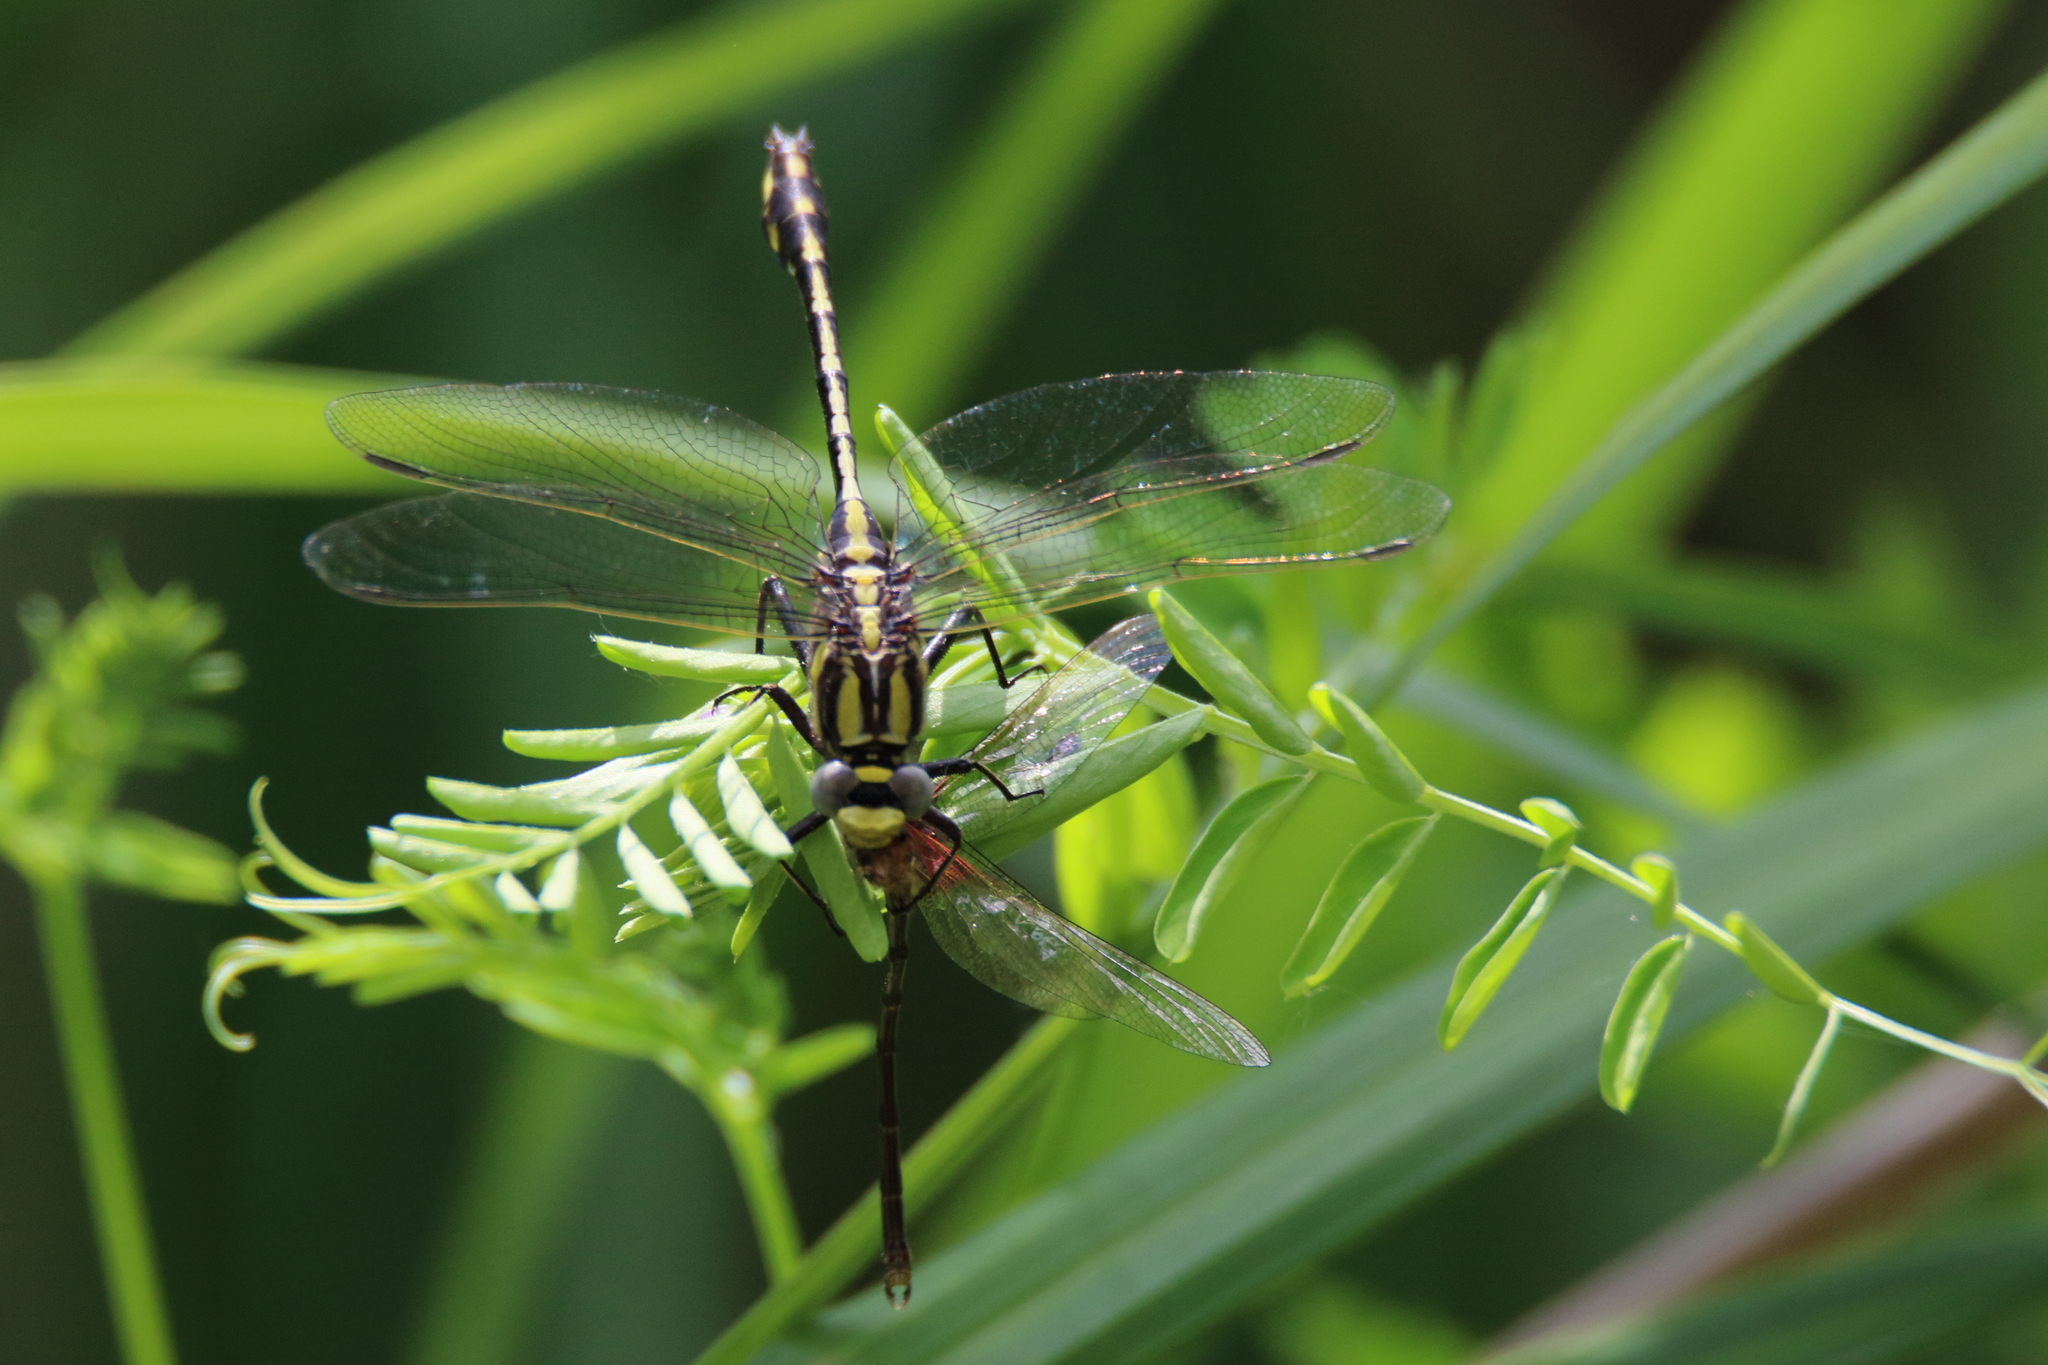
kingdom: Animalia
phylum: Arthropoda
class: Insecta
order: Odonata
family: Gomphidae
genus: Gomphurus
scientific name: Gomphurus externus
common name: Plains clubtail
